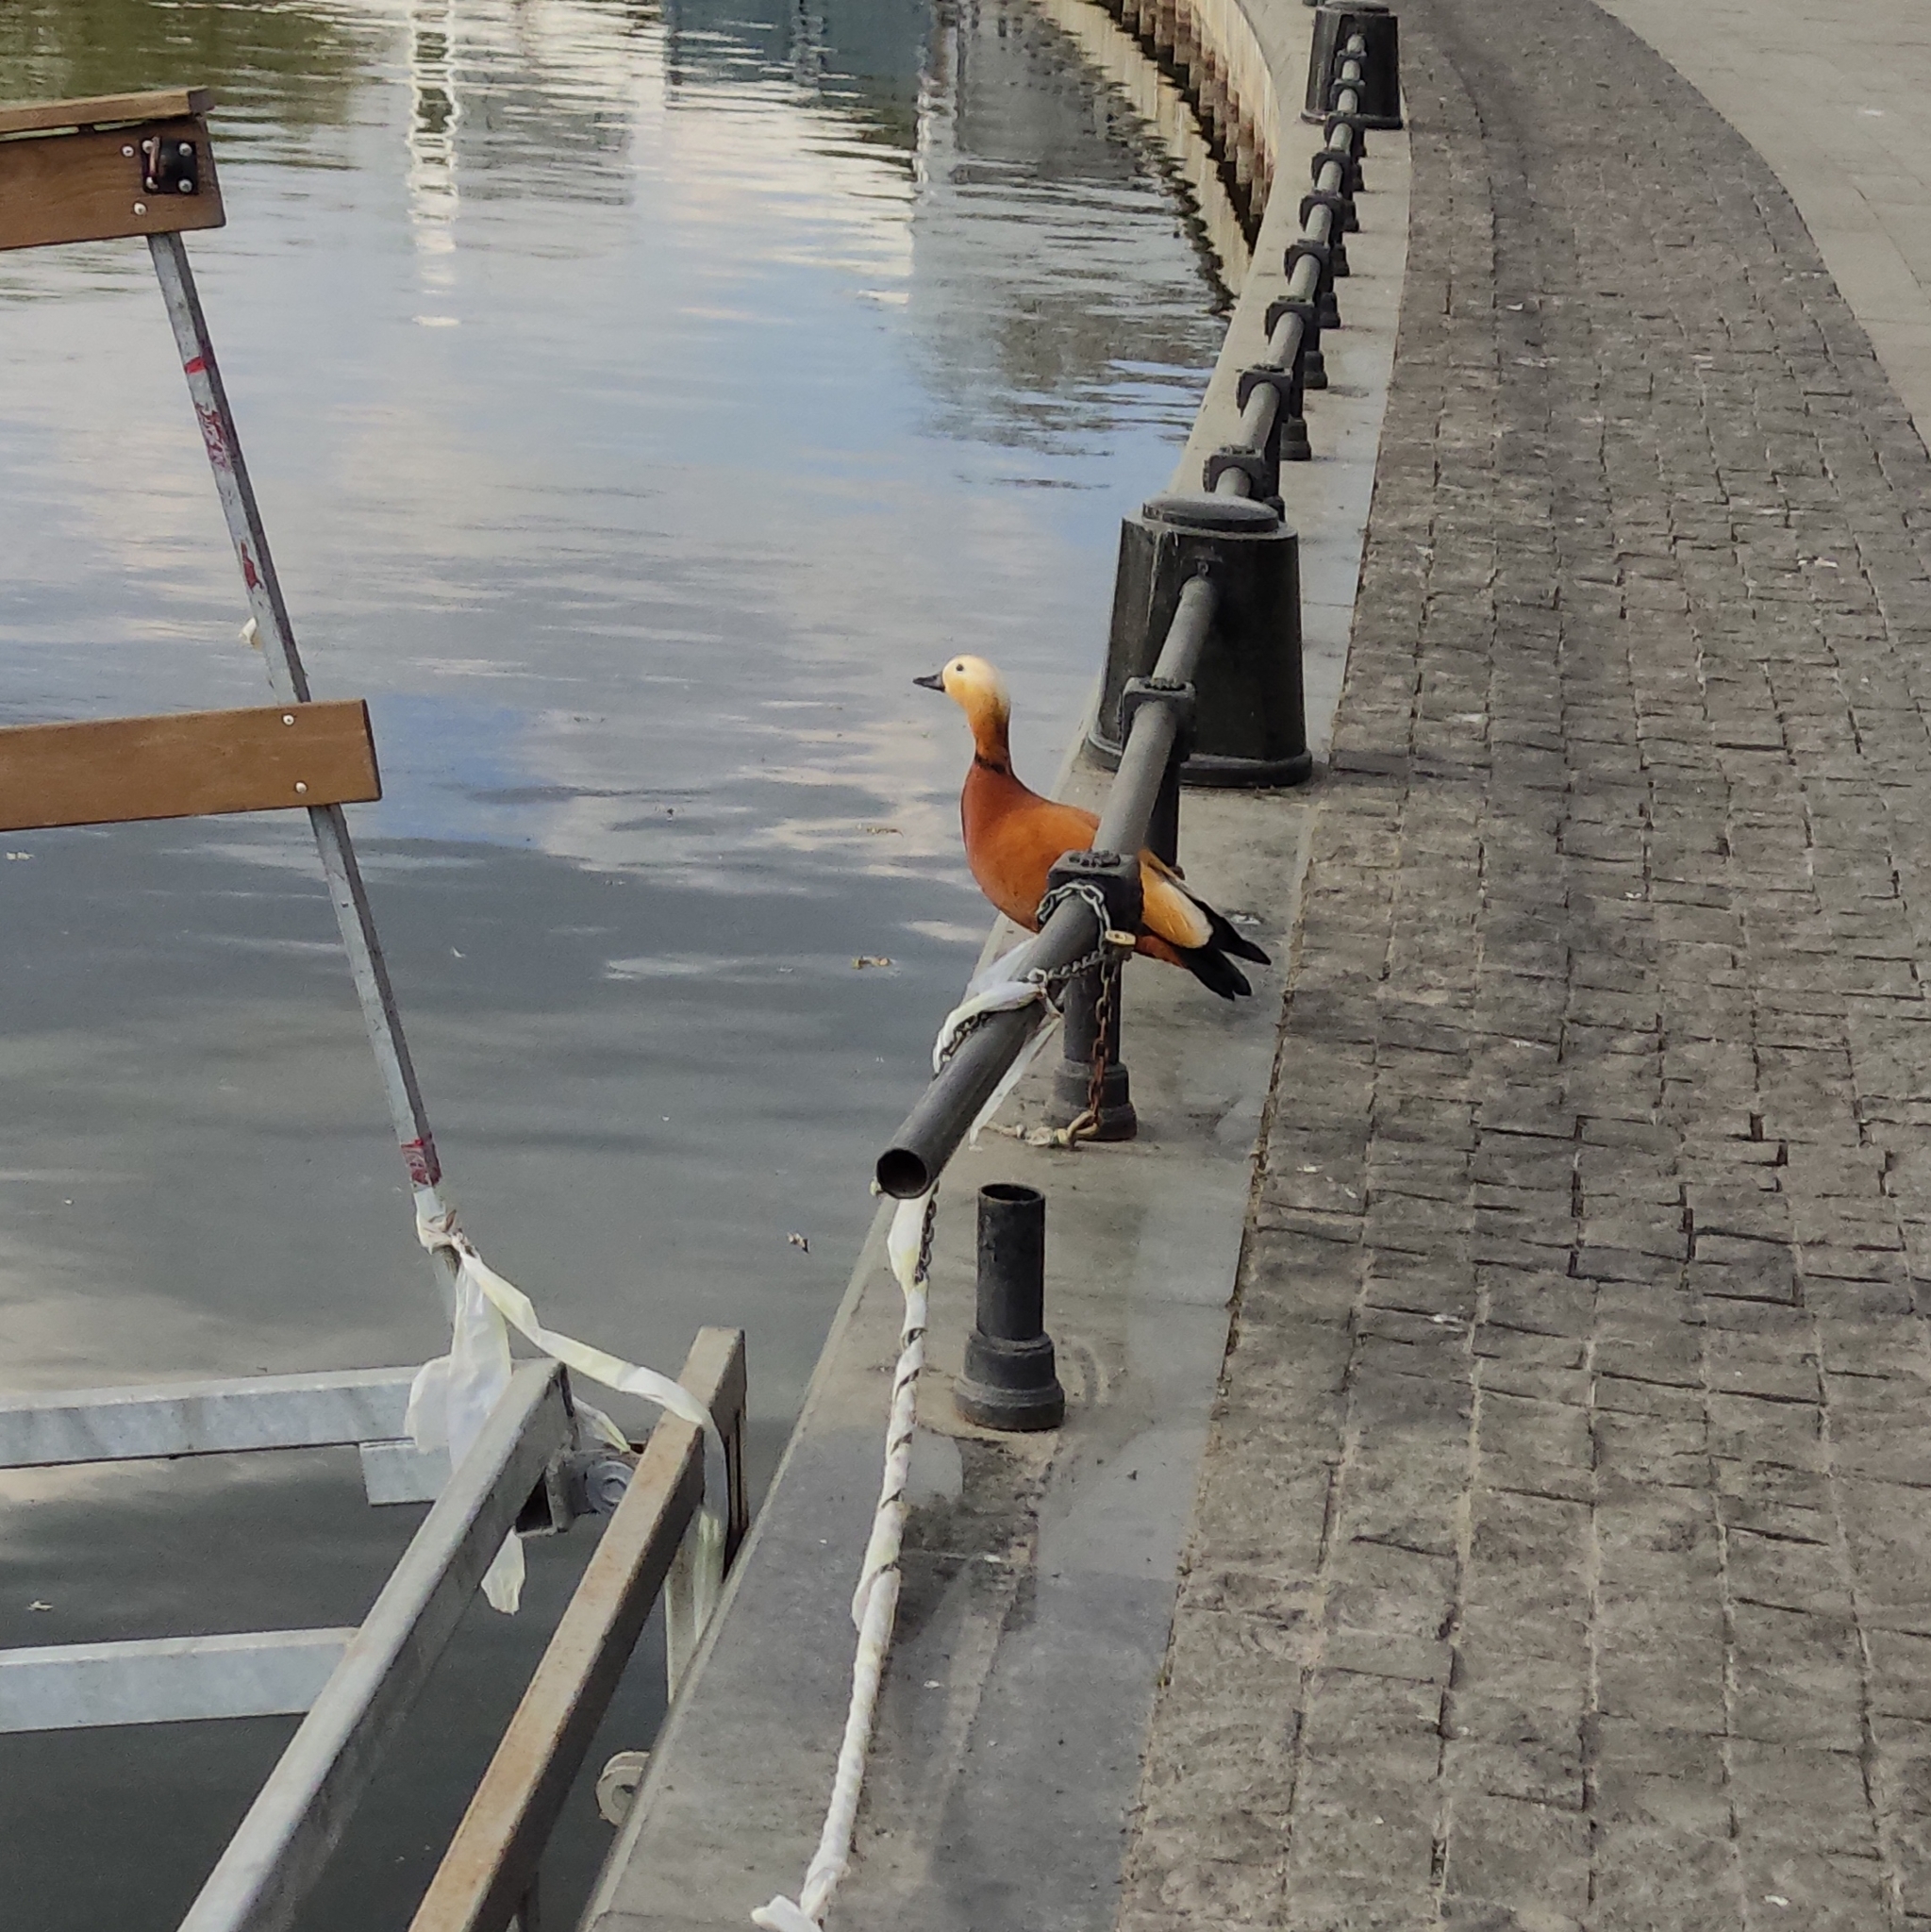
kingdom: Animalia
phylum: Chordata
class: Aves
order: Anseriformes
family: Anatidae
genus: Tadorna
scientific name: Tadorna ferruginea
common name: Ruddy shelduck
